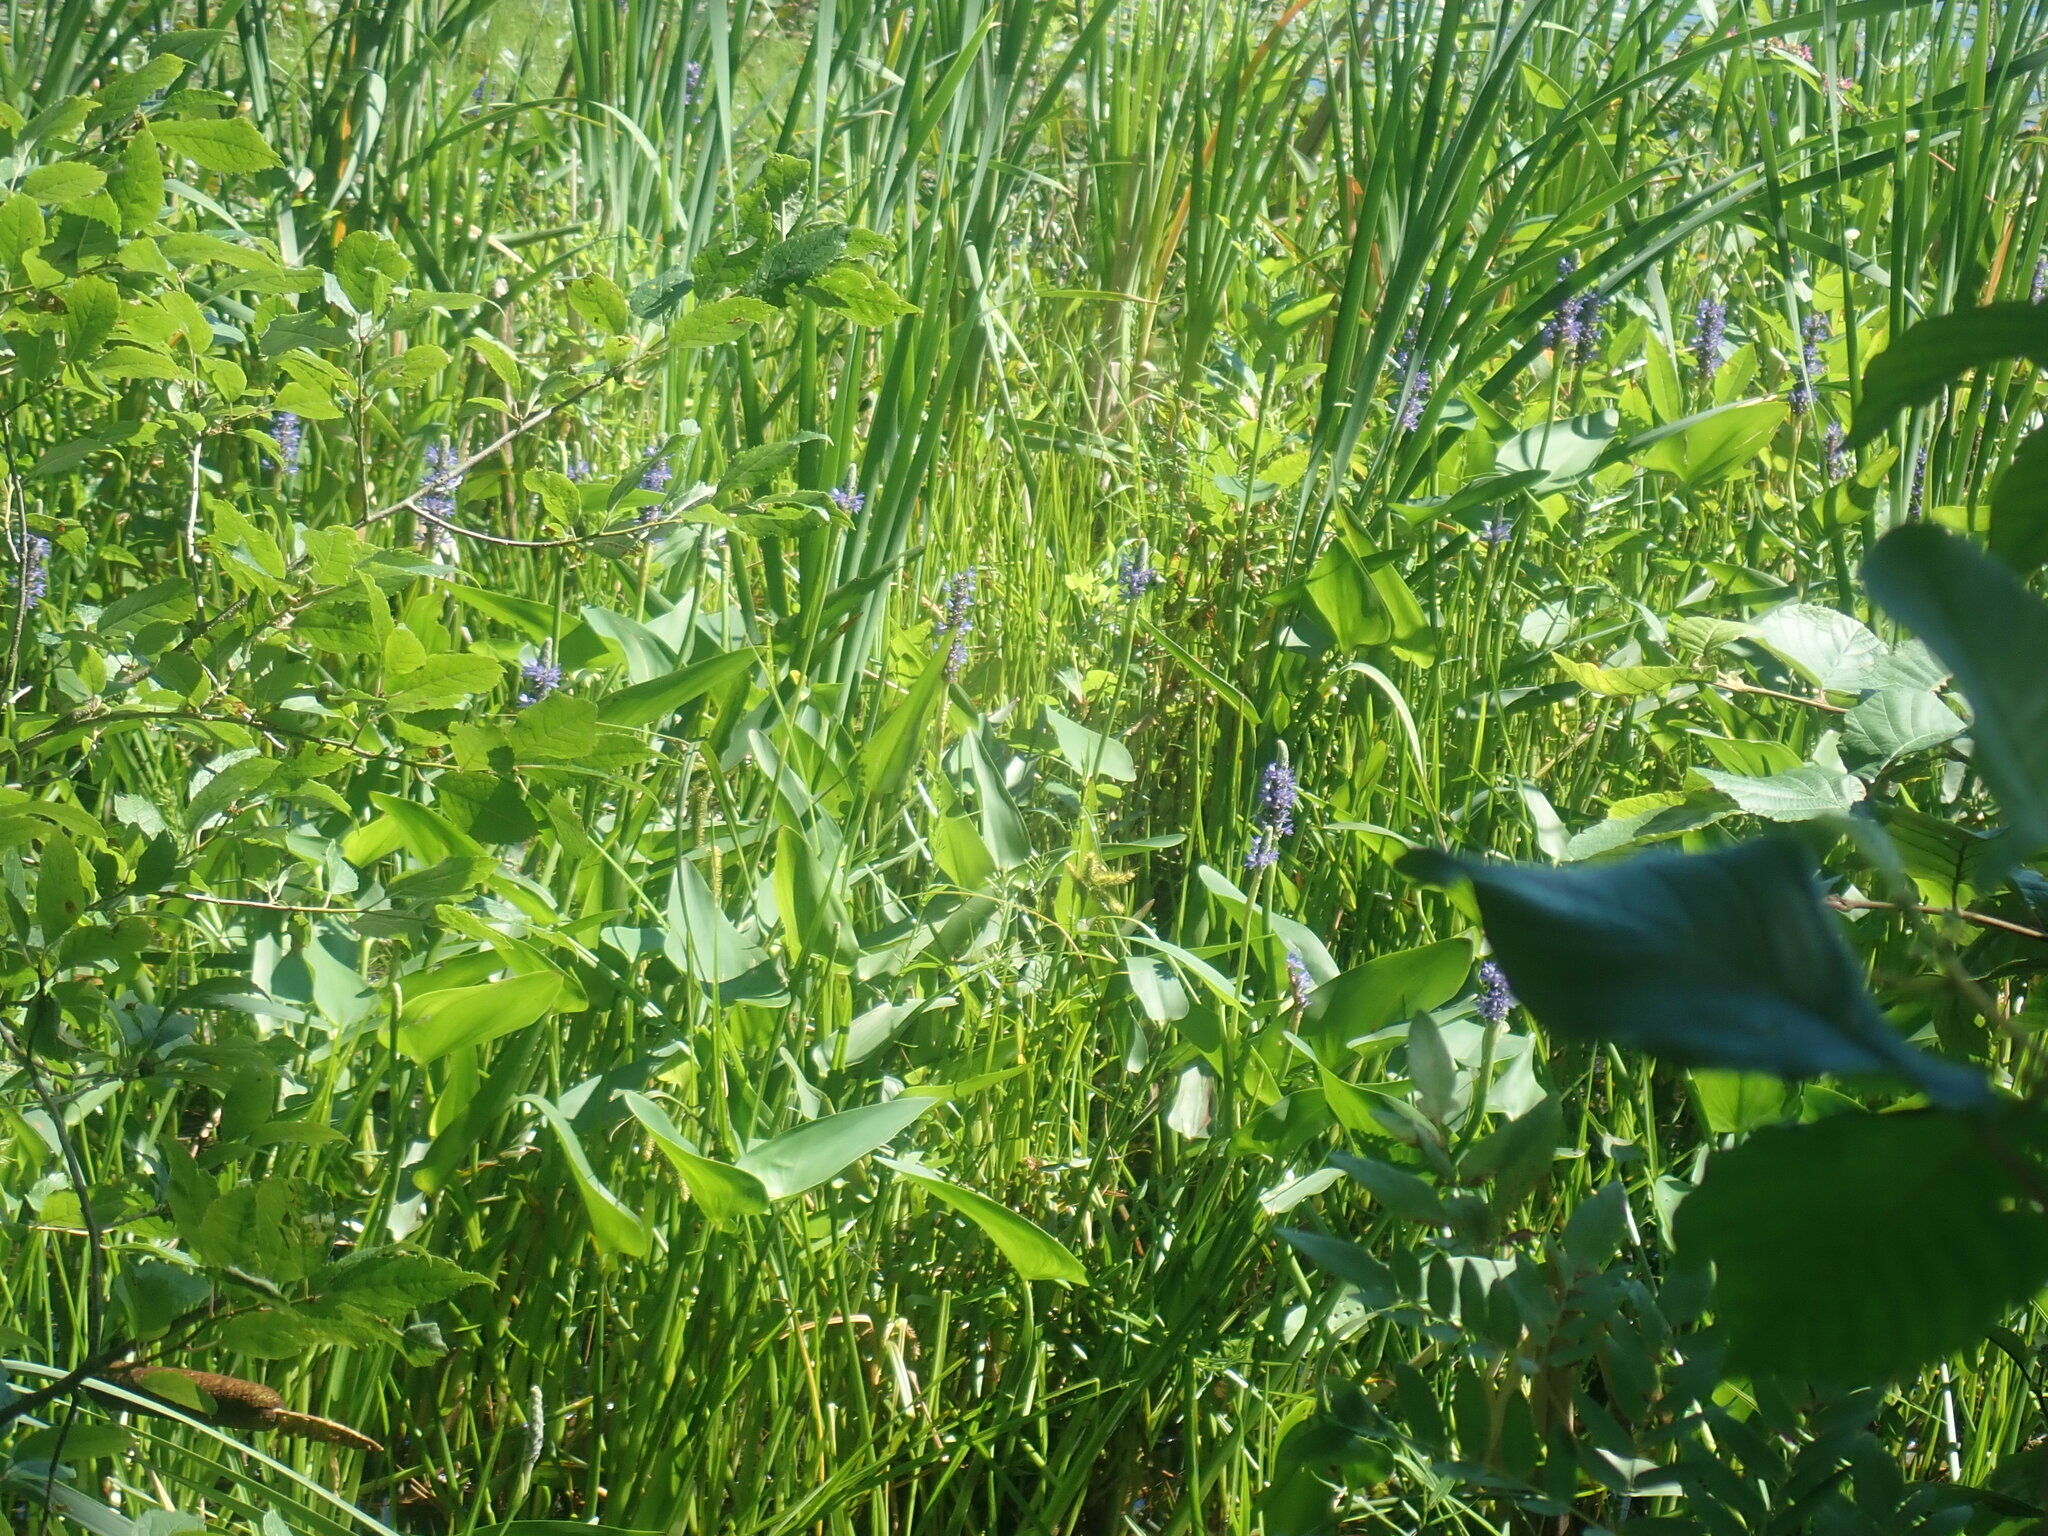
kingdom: Plantae
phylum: Tracheophyta
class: Liliopsida
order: Commelinales
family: Pontederiaceae
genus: Pontederia
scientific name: Pontederia cordata
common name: Pickerelweed
